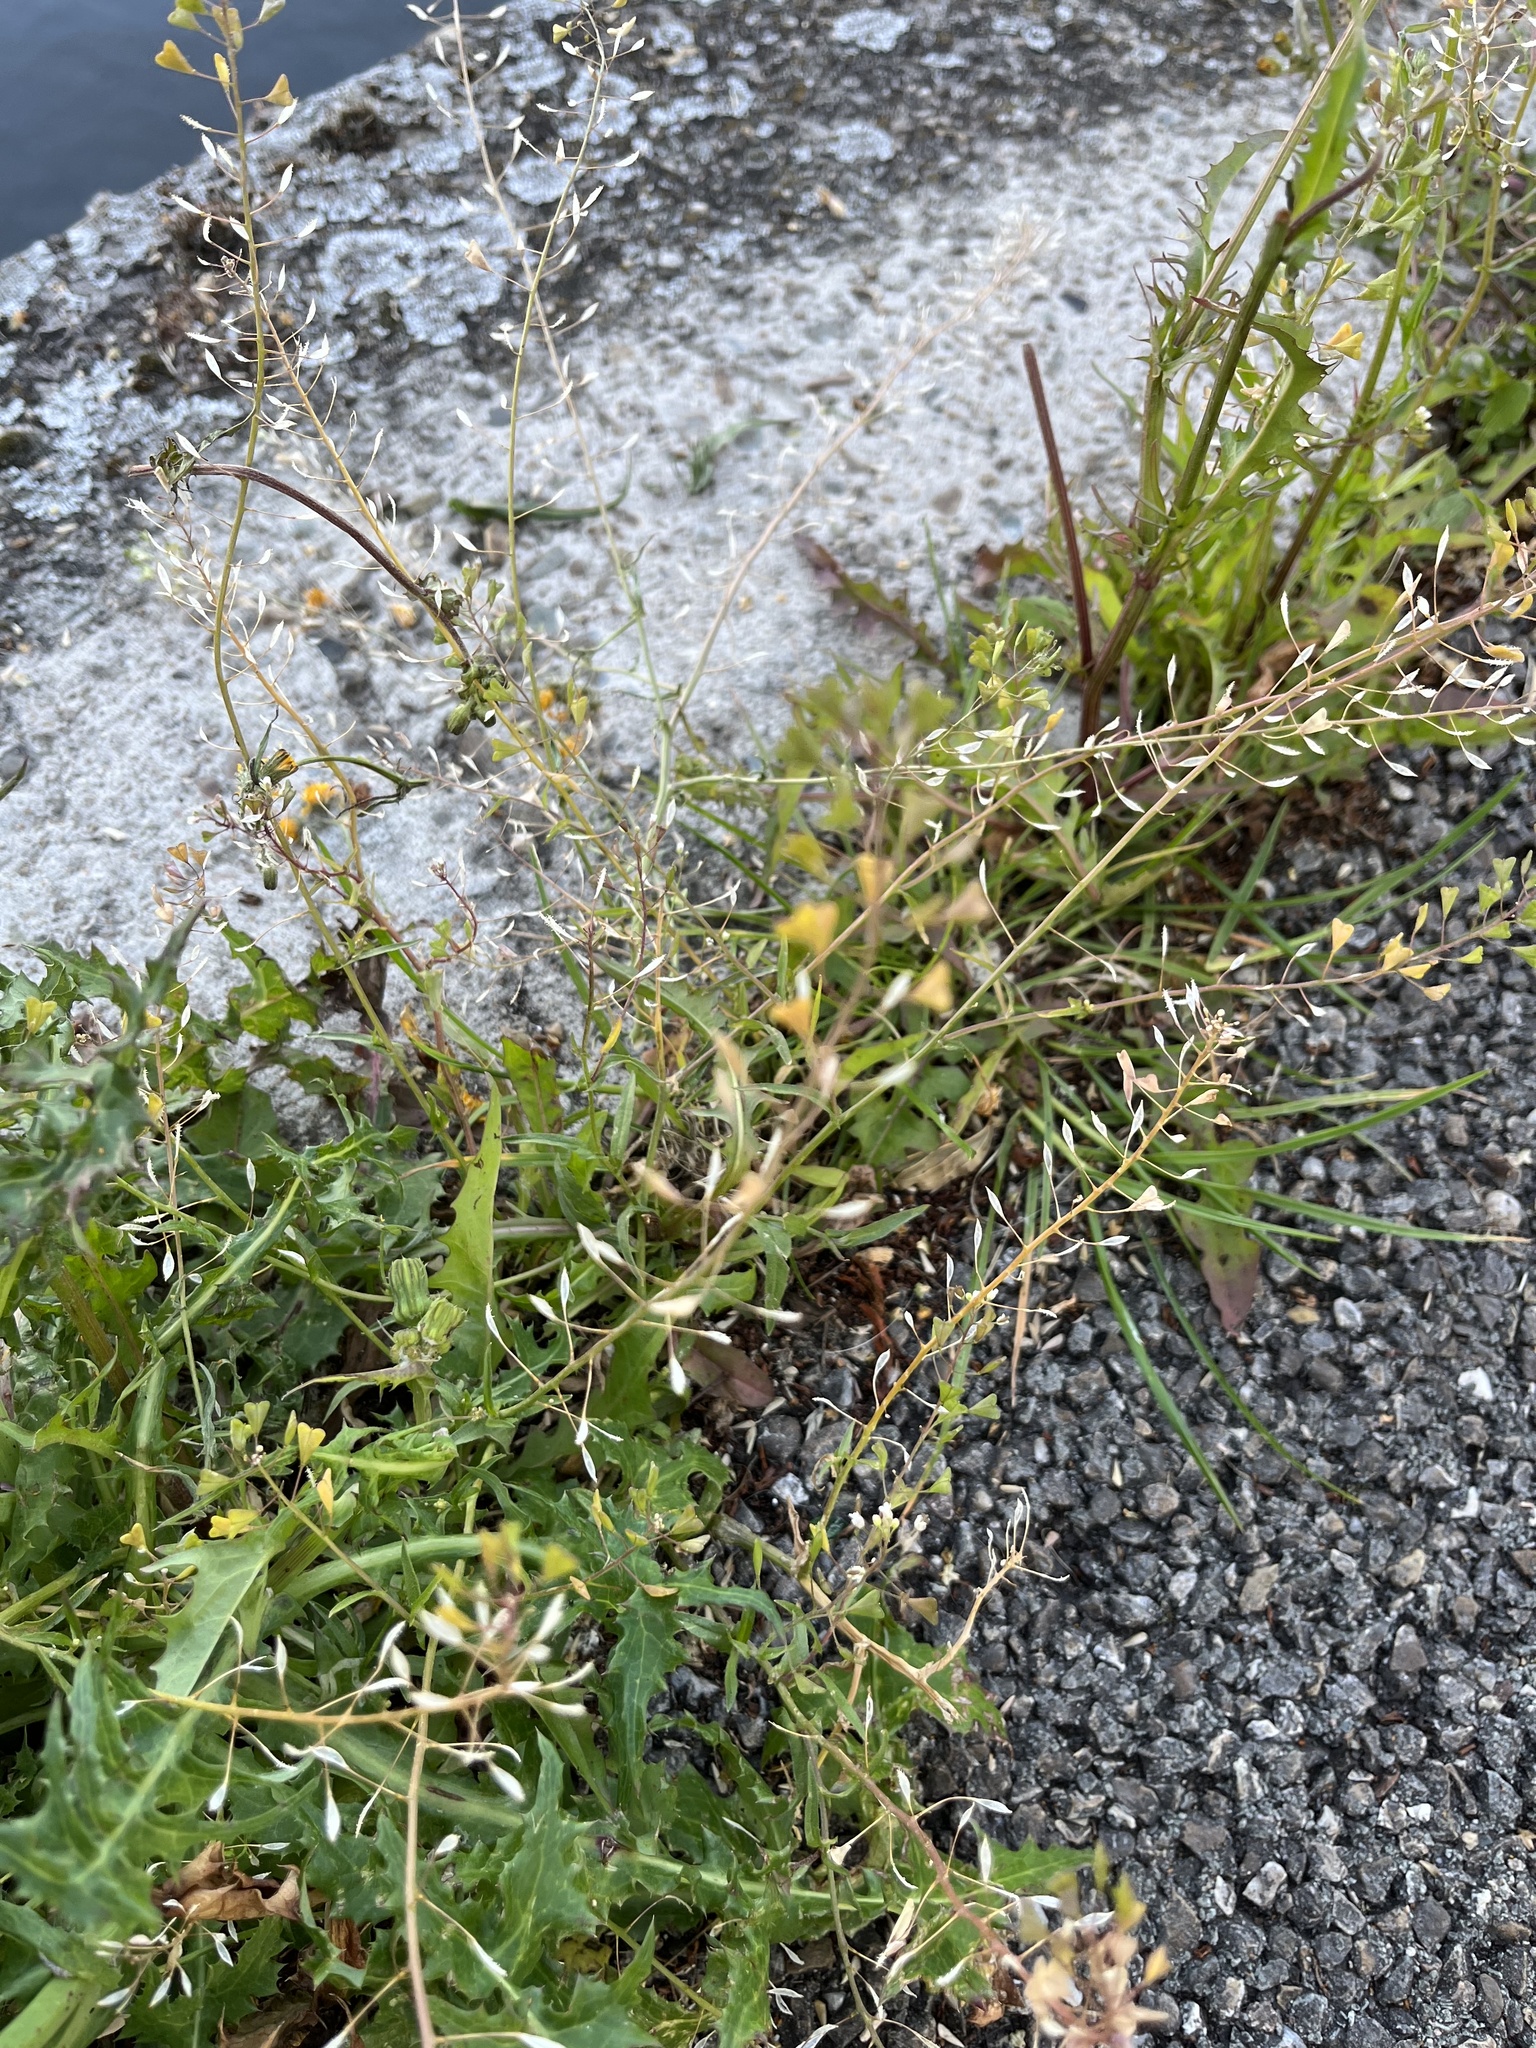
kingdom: Plantae
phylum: Tracheophyta
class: Magnoliopsida
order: Brassicales
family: Brassicaceae
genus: Capsella
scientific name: Capsella bursa-pastoris
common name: Shepherd's purse
